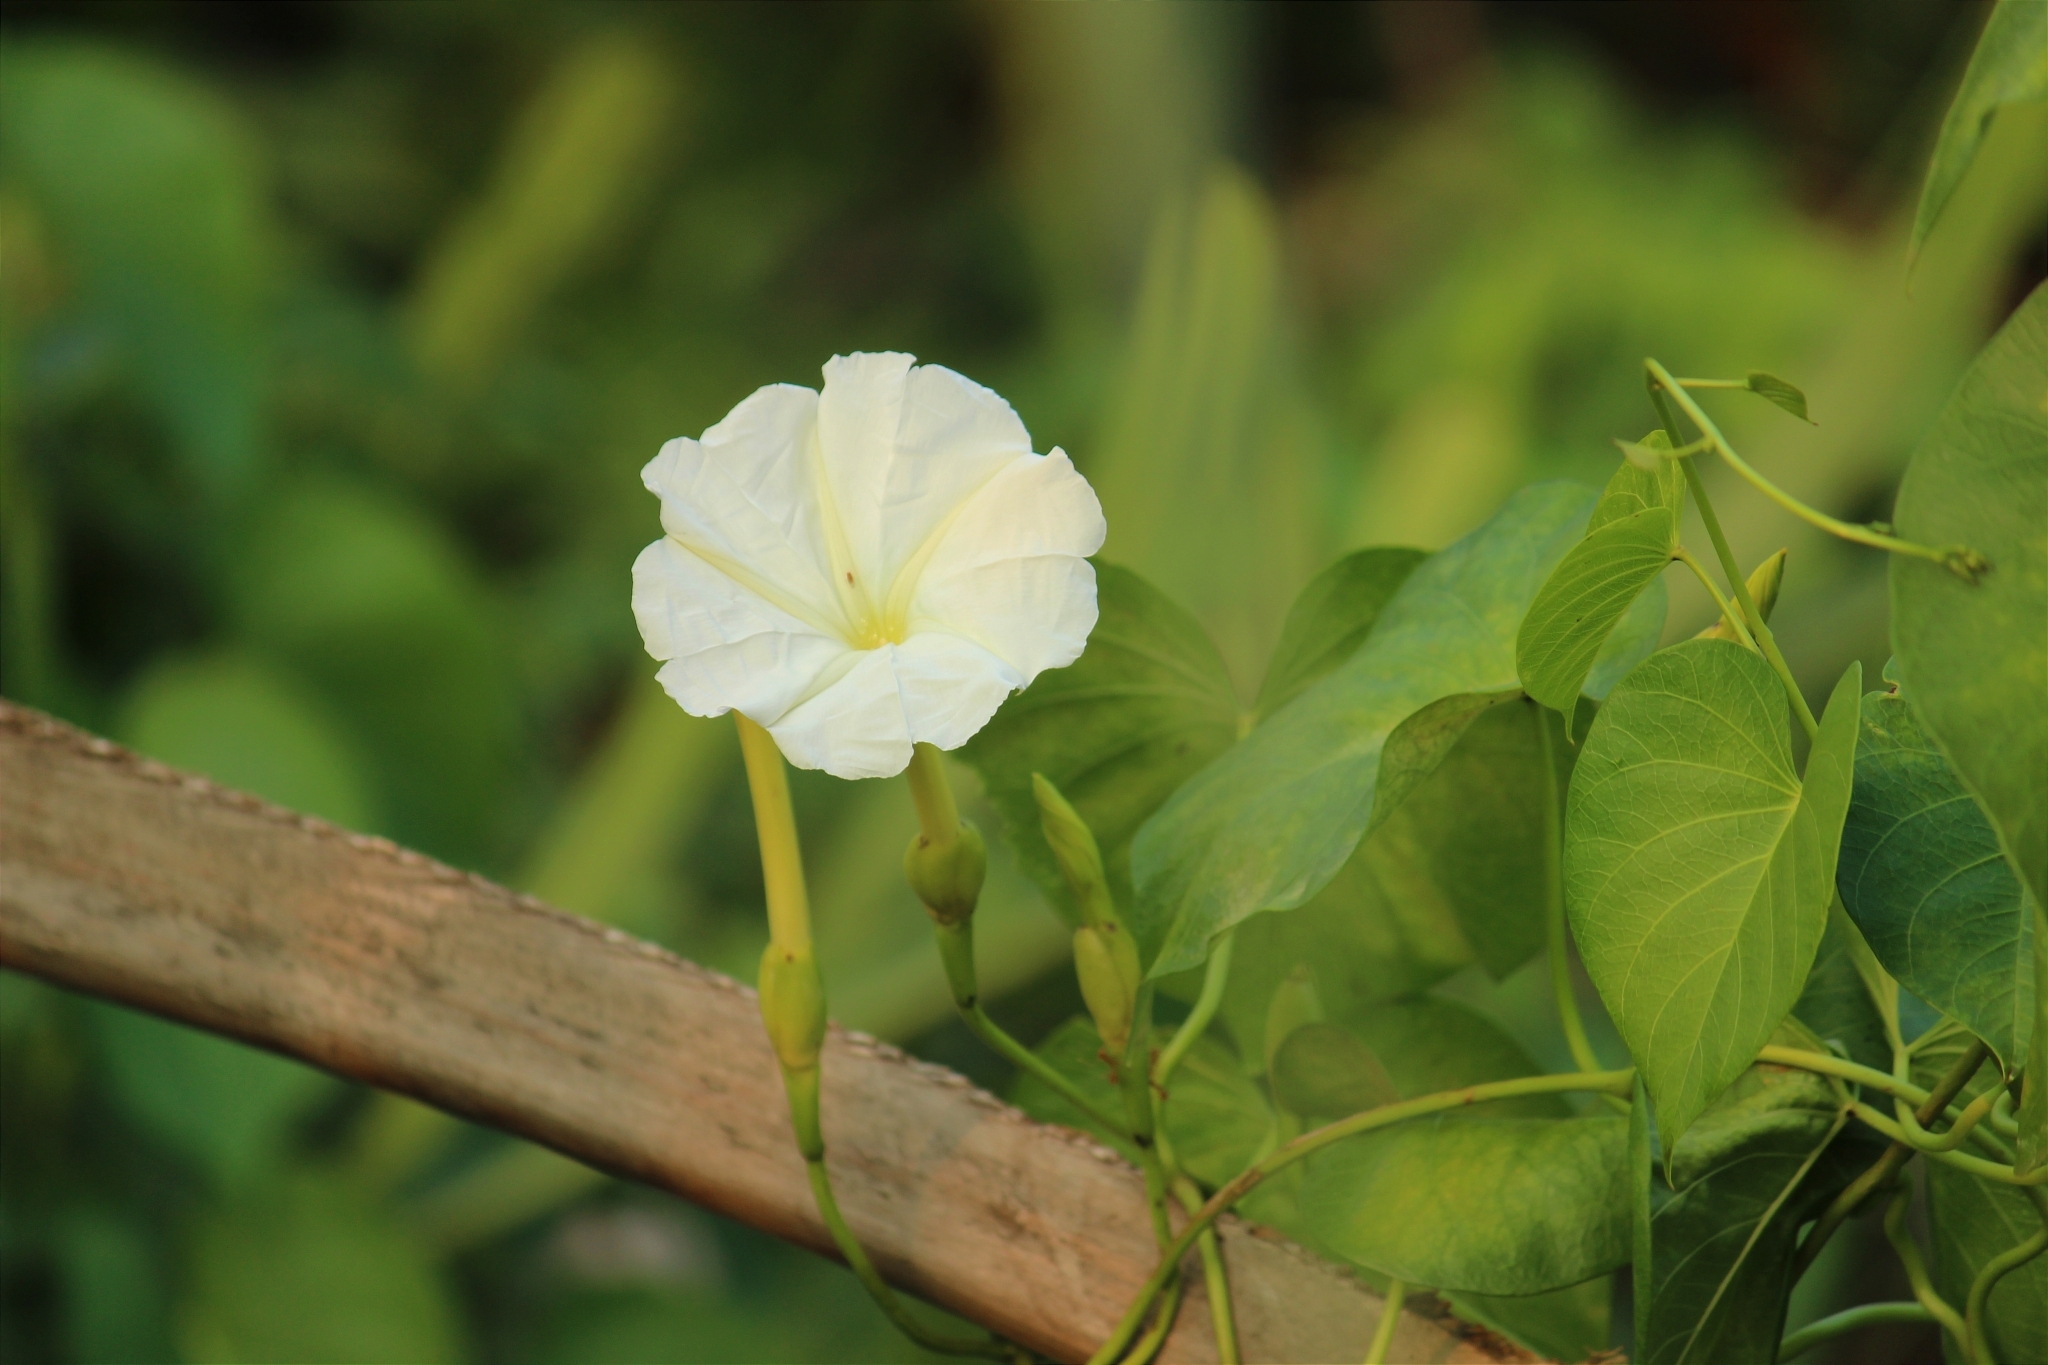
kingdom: Plantae
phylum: Tracheophyta
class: Magnoliopsida
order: Solanales
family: Convolvulaceae
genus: Ipomoea
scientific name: Ipomoea violacea
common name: Beach moonflower
